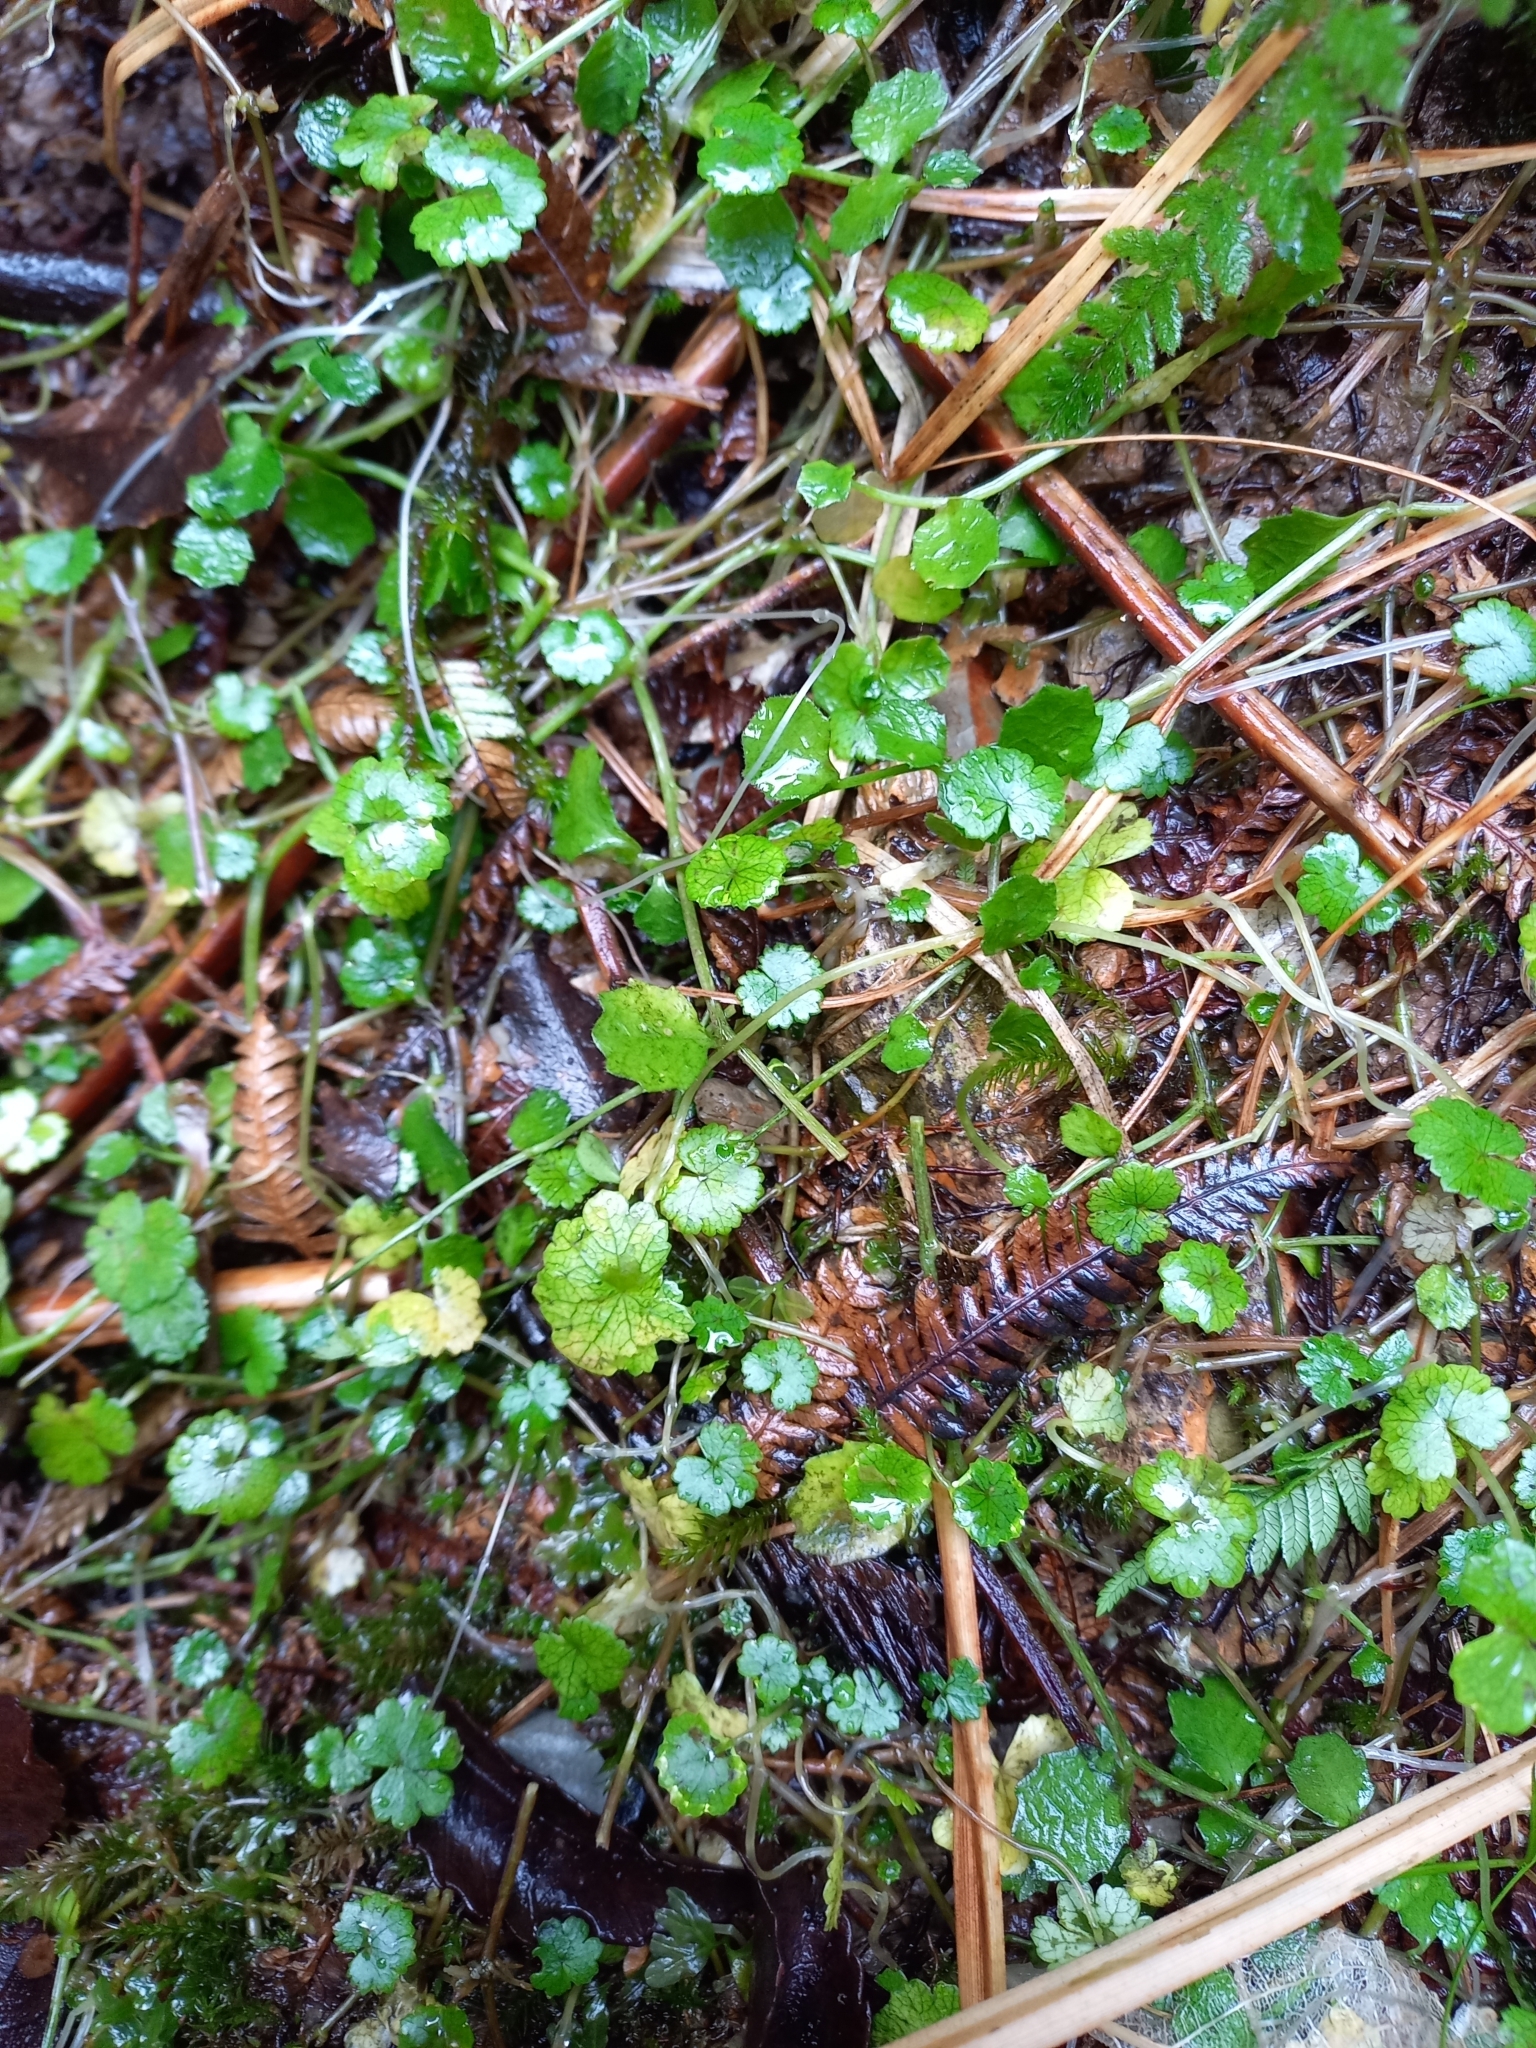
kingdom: Plantae
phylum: Tracheophyta
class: Magnoliopsida
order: Apiales
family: Araliaceae
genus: Hydrocotyle
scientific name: Hydrocotyle microphylla
